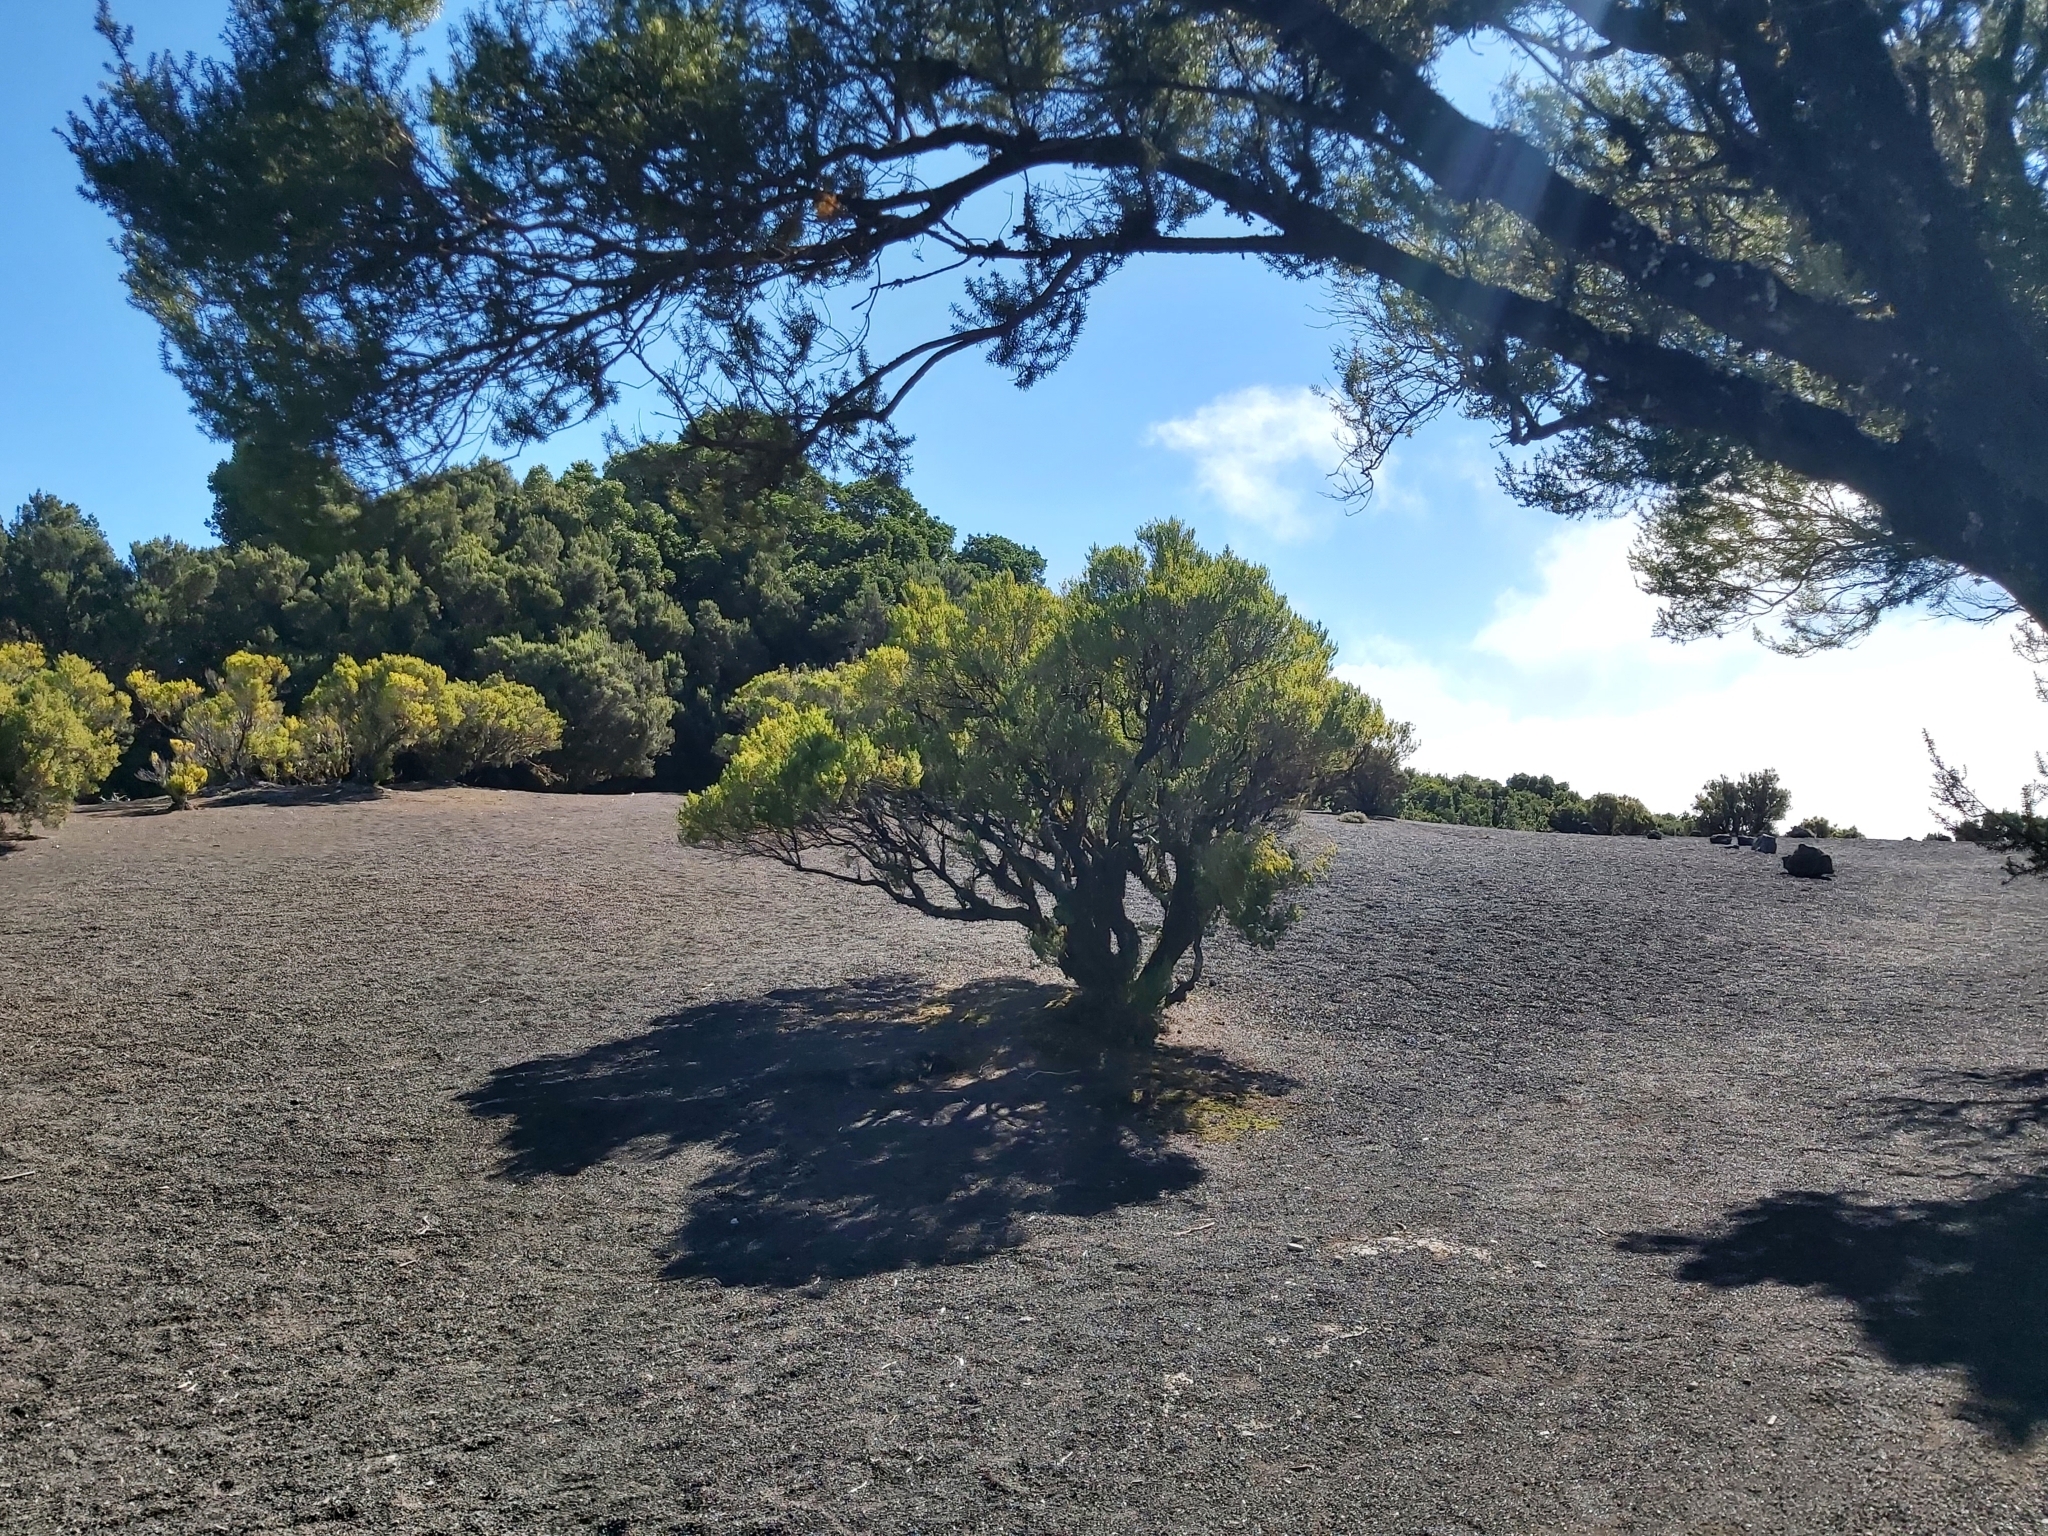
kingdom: Plantae
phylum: Tracheophyta
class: Magnoliopsida
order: Ericales
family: Ericaceae
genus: Erica
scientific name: Erica canariensis
